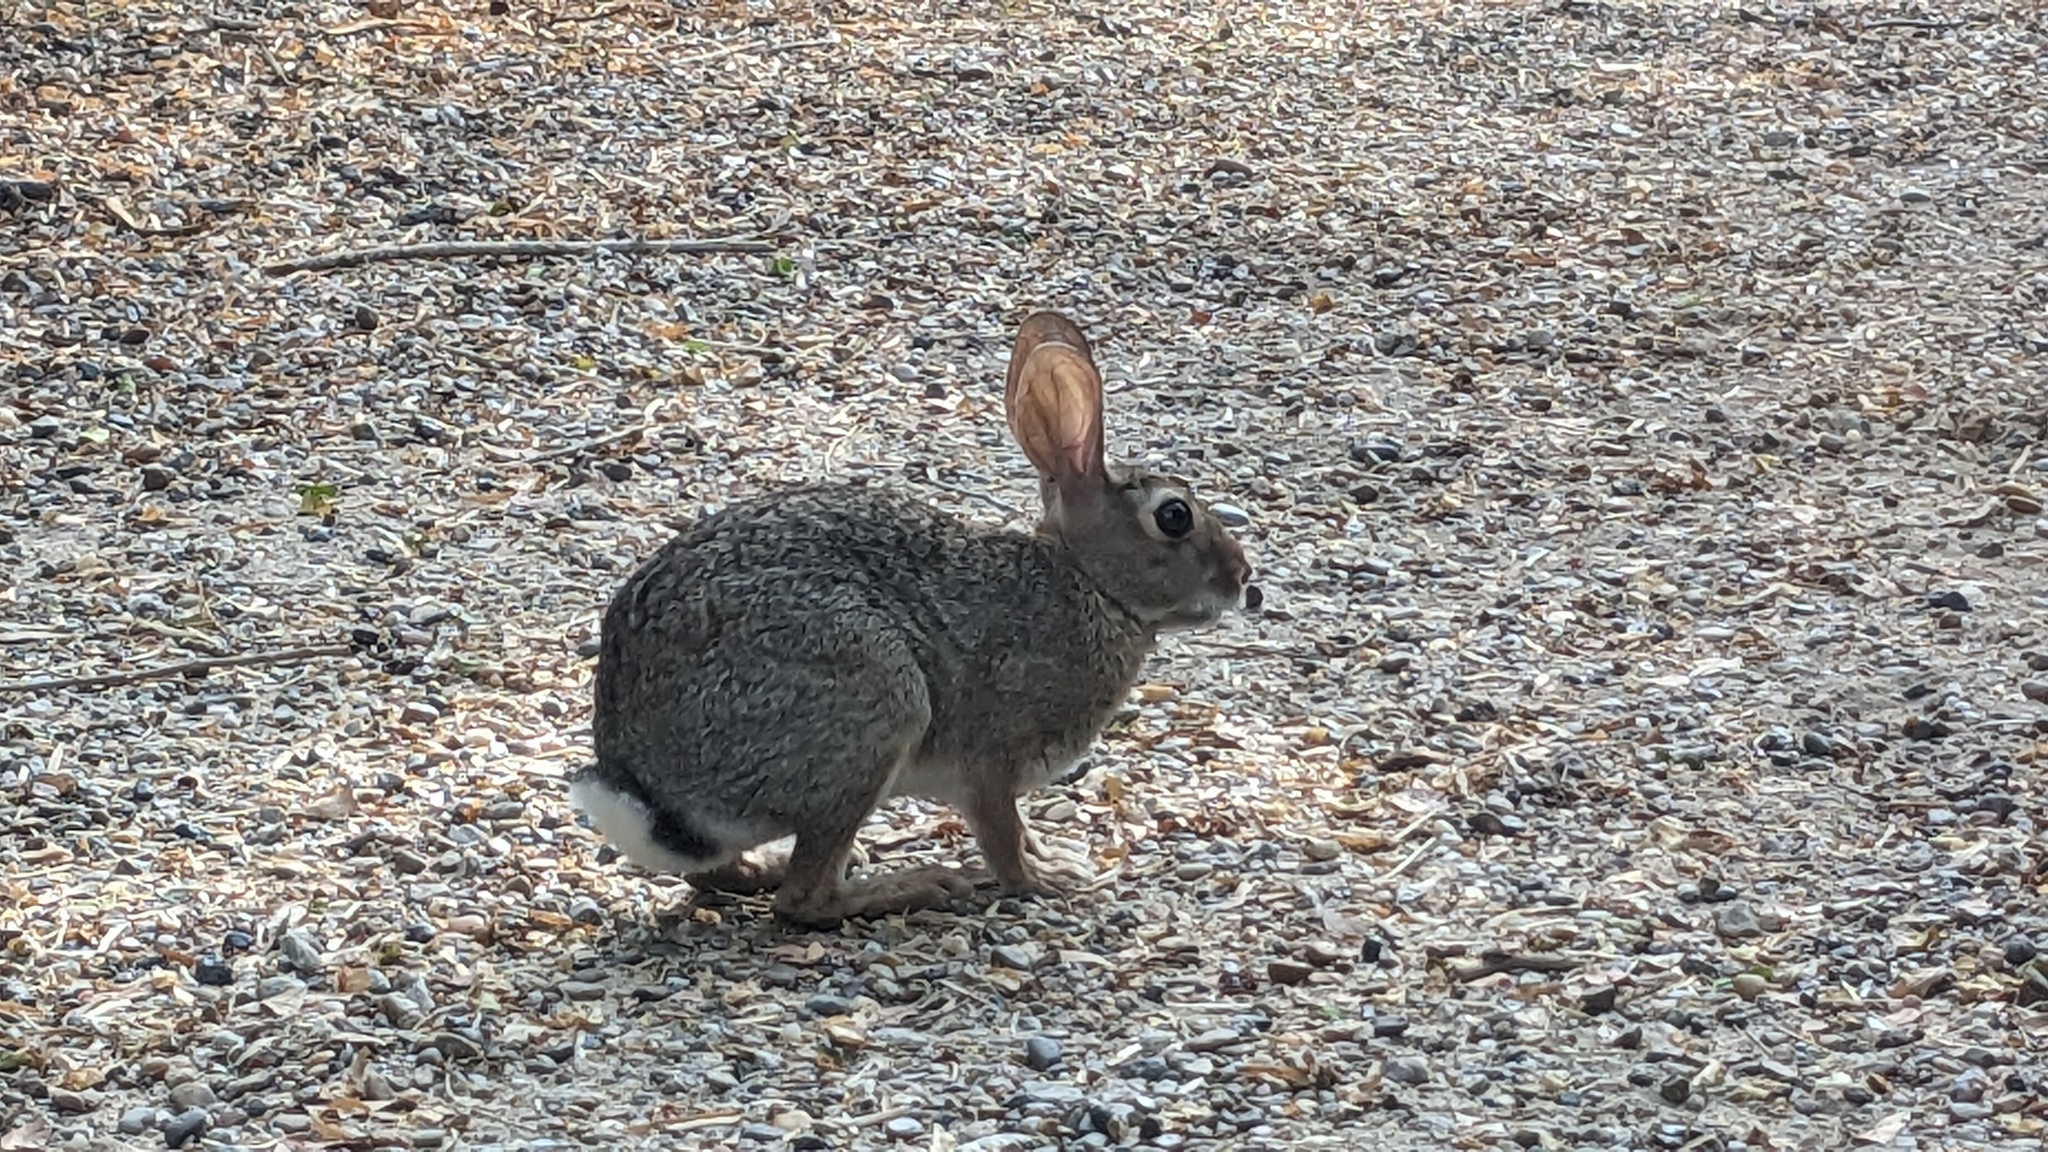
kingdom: Animalia
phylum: Chordata
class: Mammalia
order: Lagomorpha
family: Leporidae
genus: Sylvilagus
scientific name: Sylvilagus floridanus
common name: Eastern cottontail
